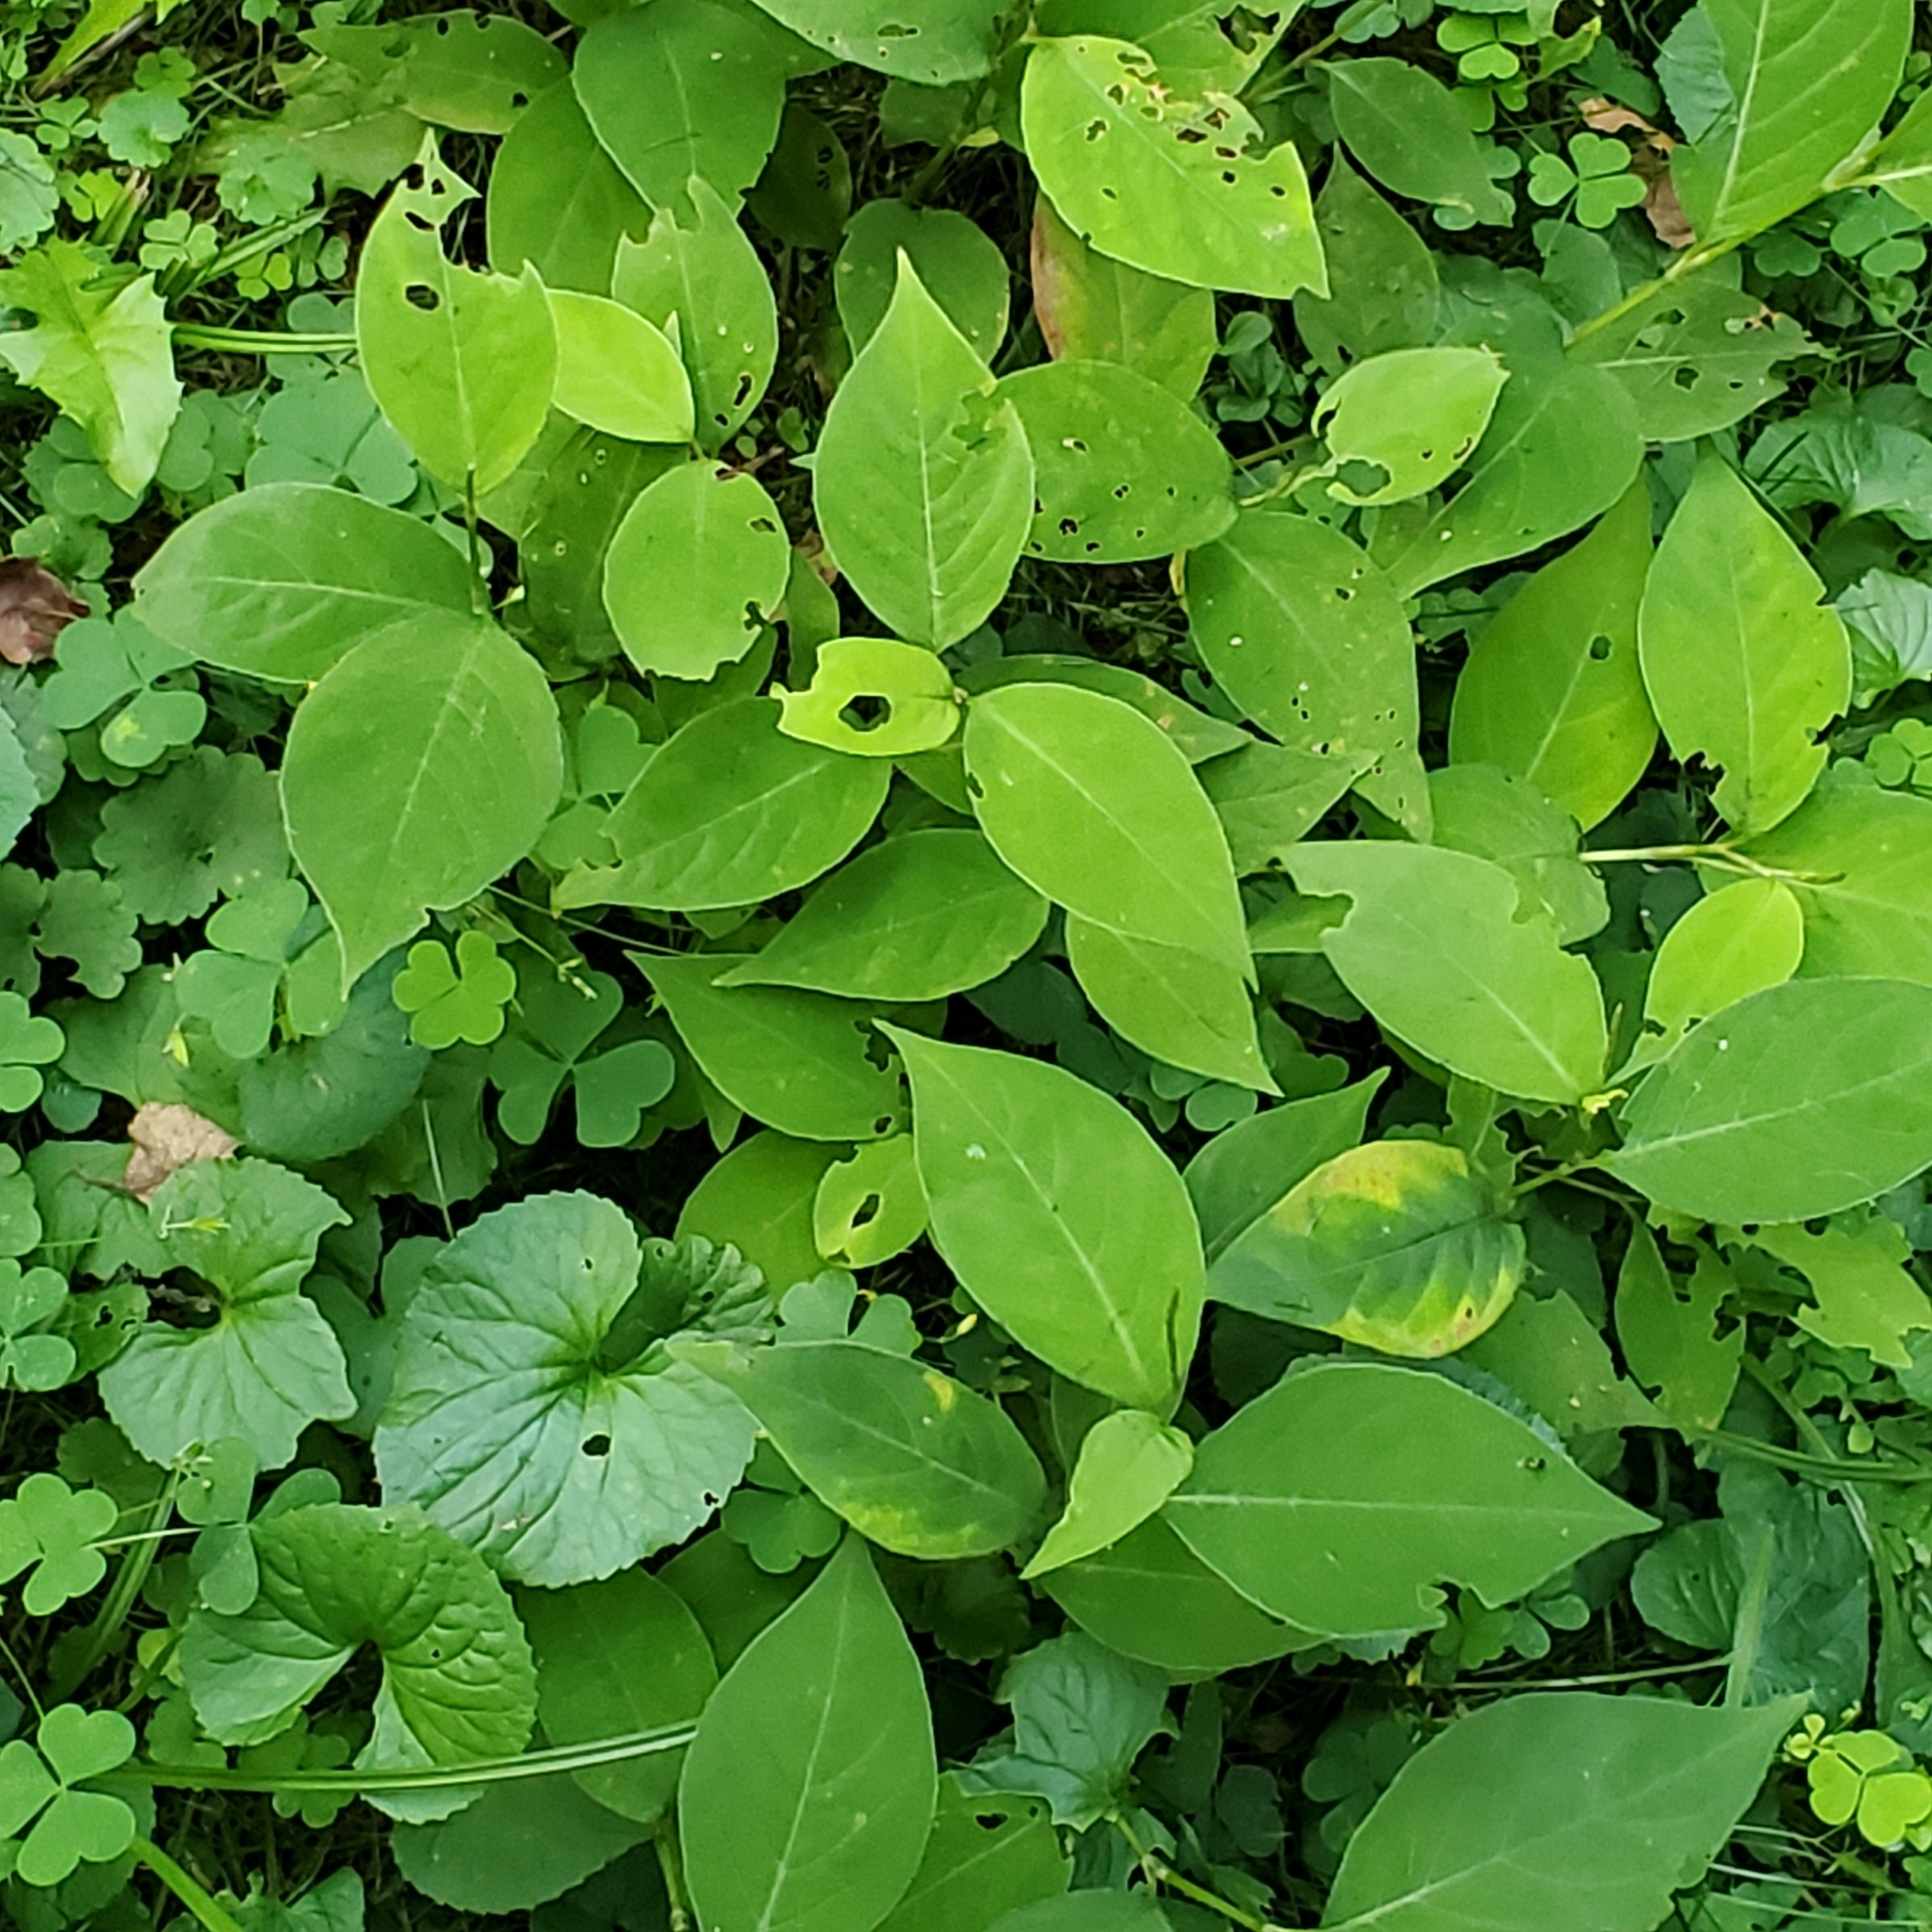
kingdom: Plantae
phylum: Tracheophyta
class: Magnoliopsida
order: Caryophyllales
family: Polygonaceae
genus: Persicaria
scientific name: Persicaria virginiana
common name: Jumpseed
